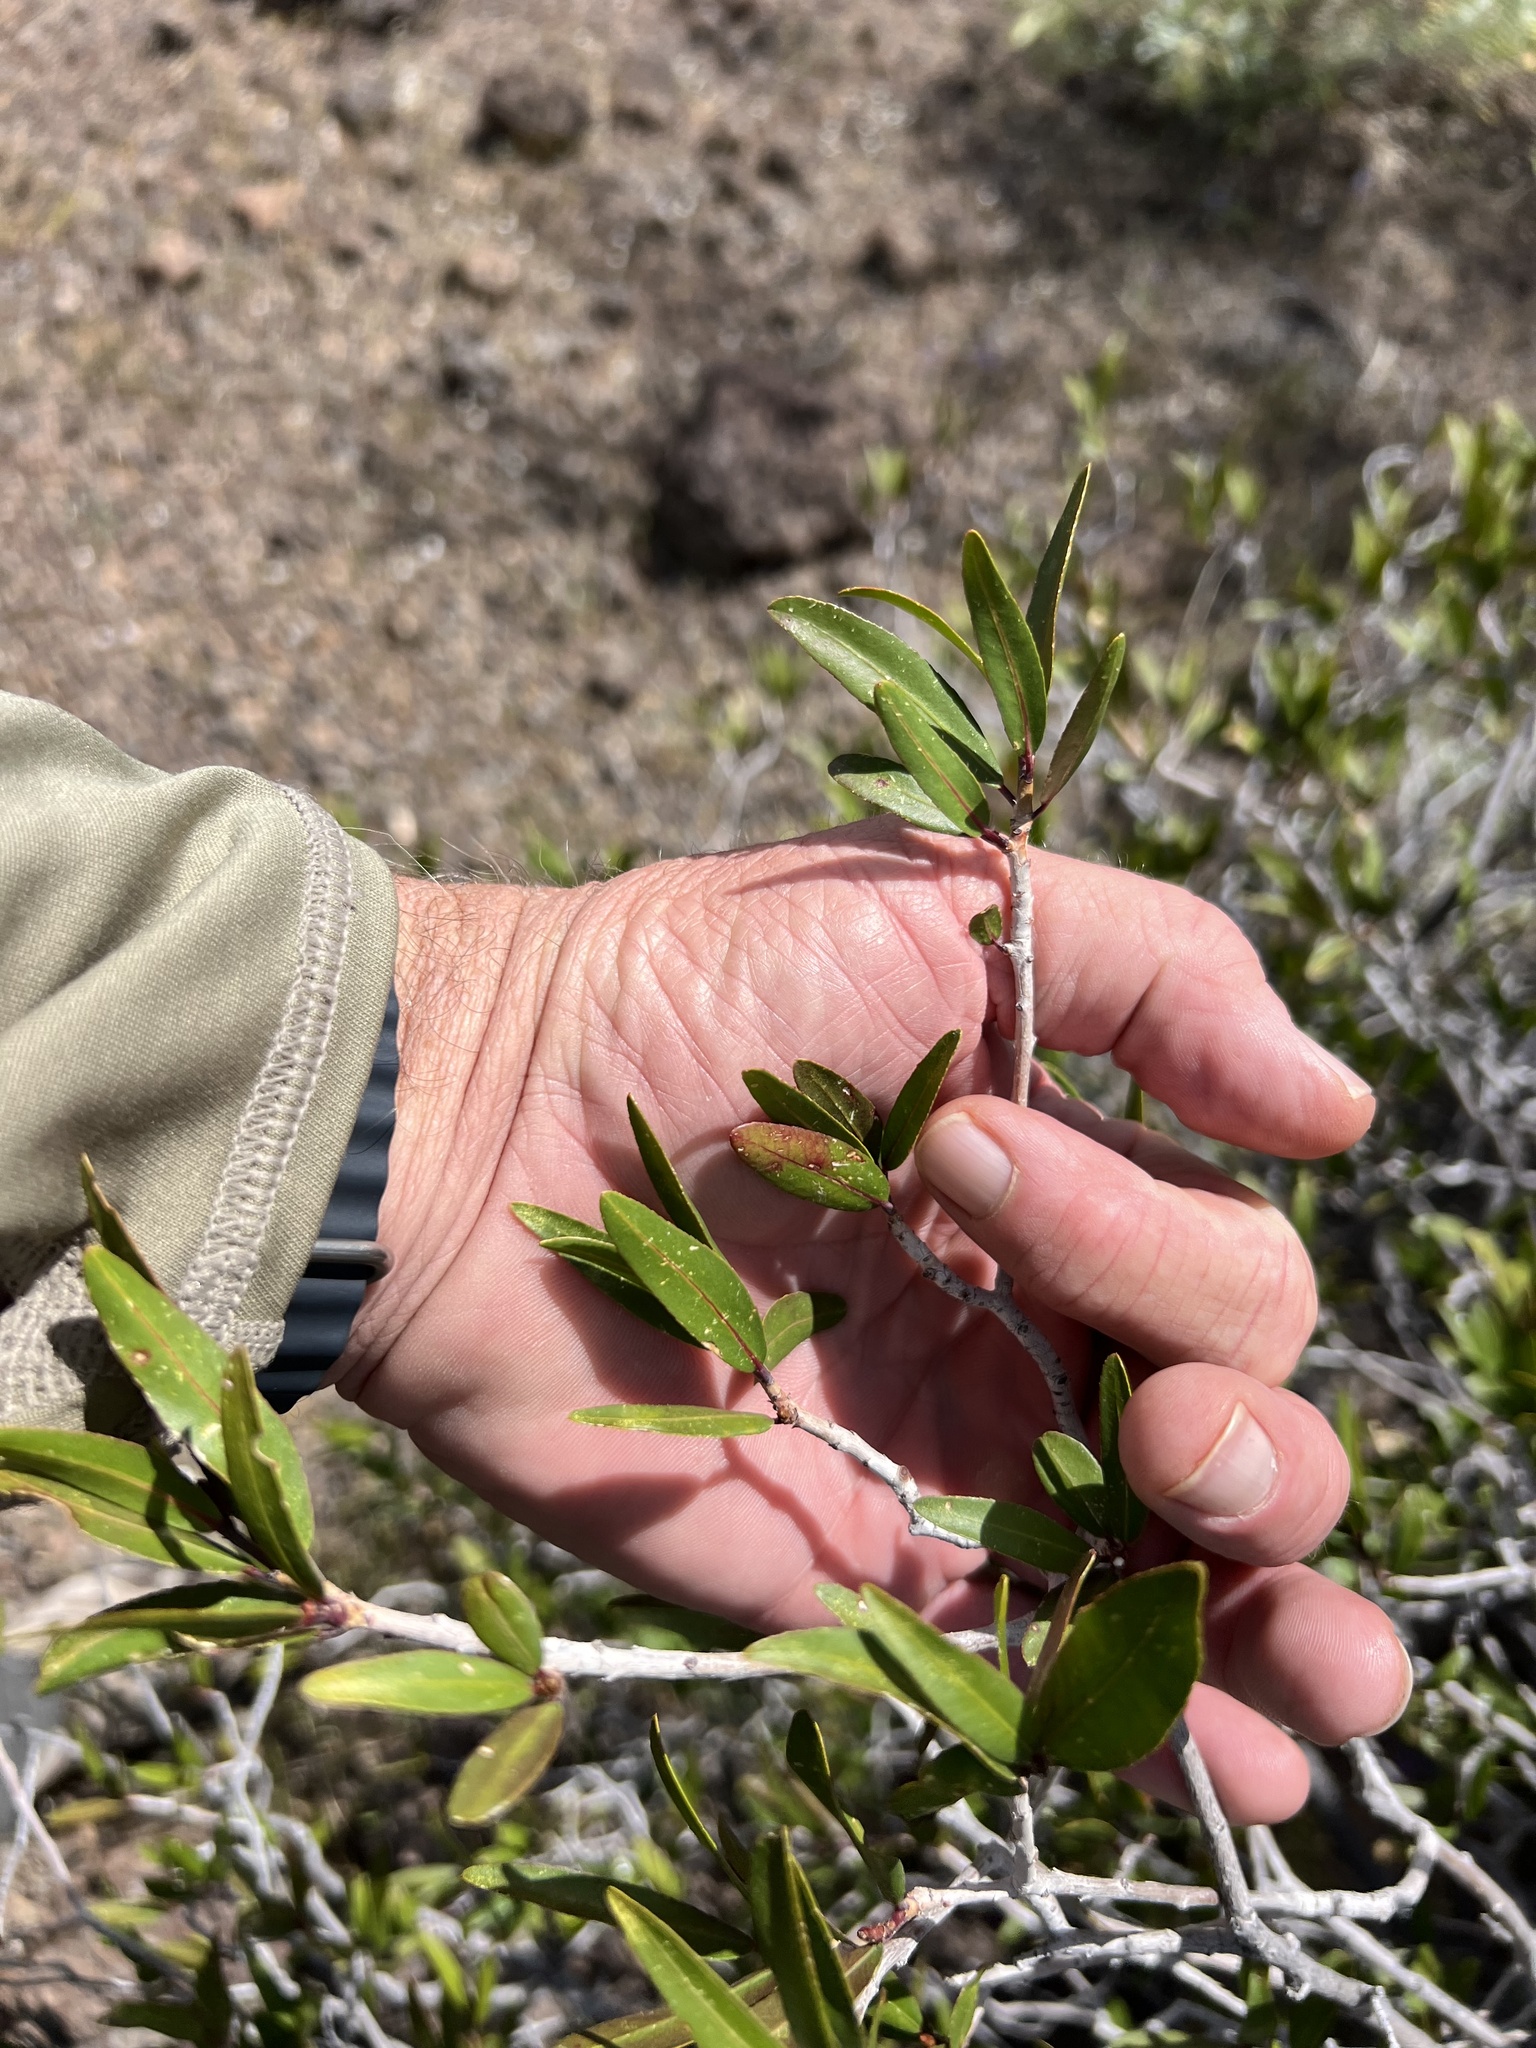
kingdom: Plantae
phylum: Tracheophyta
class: Magnoliopsida
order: Malpighiales
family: Euphorbiaceae
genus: Pleradenophora
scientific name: Pleradenophora bilocularis
